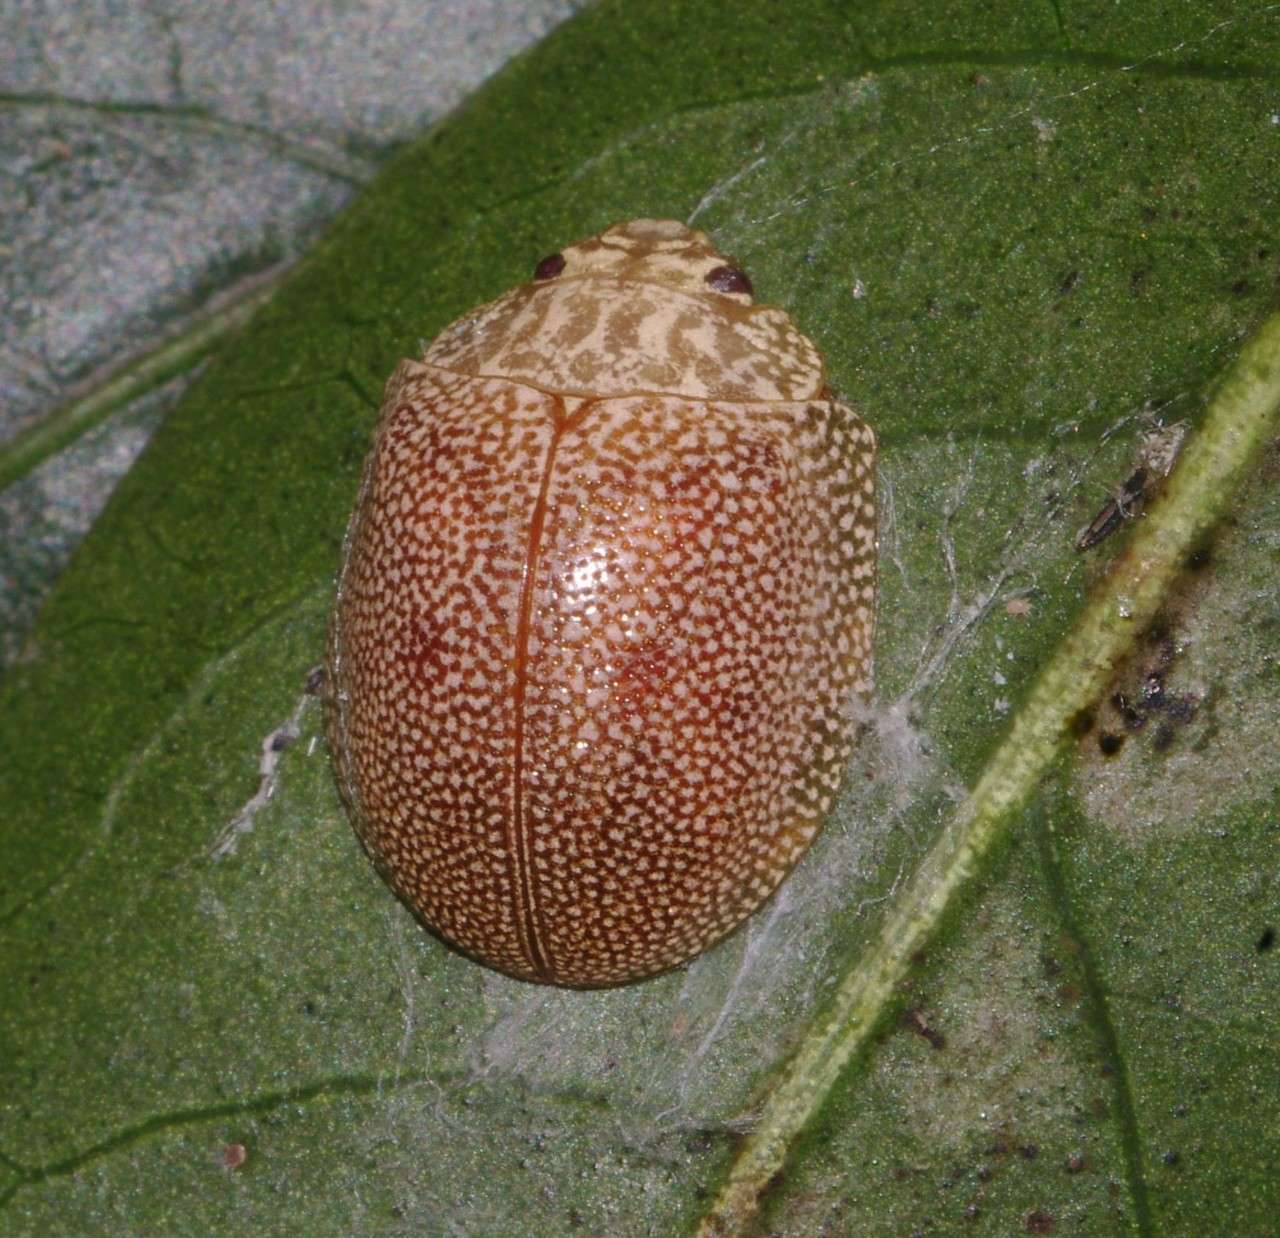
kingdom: Animalia
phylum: Arthropoda
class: Insecta
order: Coleoptera
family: Chrysomelidae
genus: Paropsis
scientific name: Paropsis
